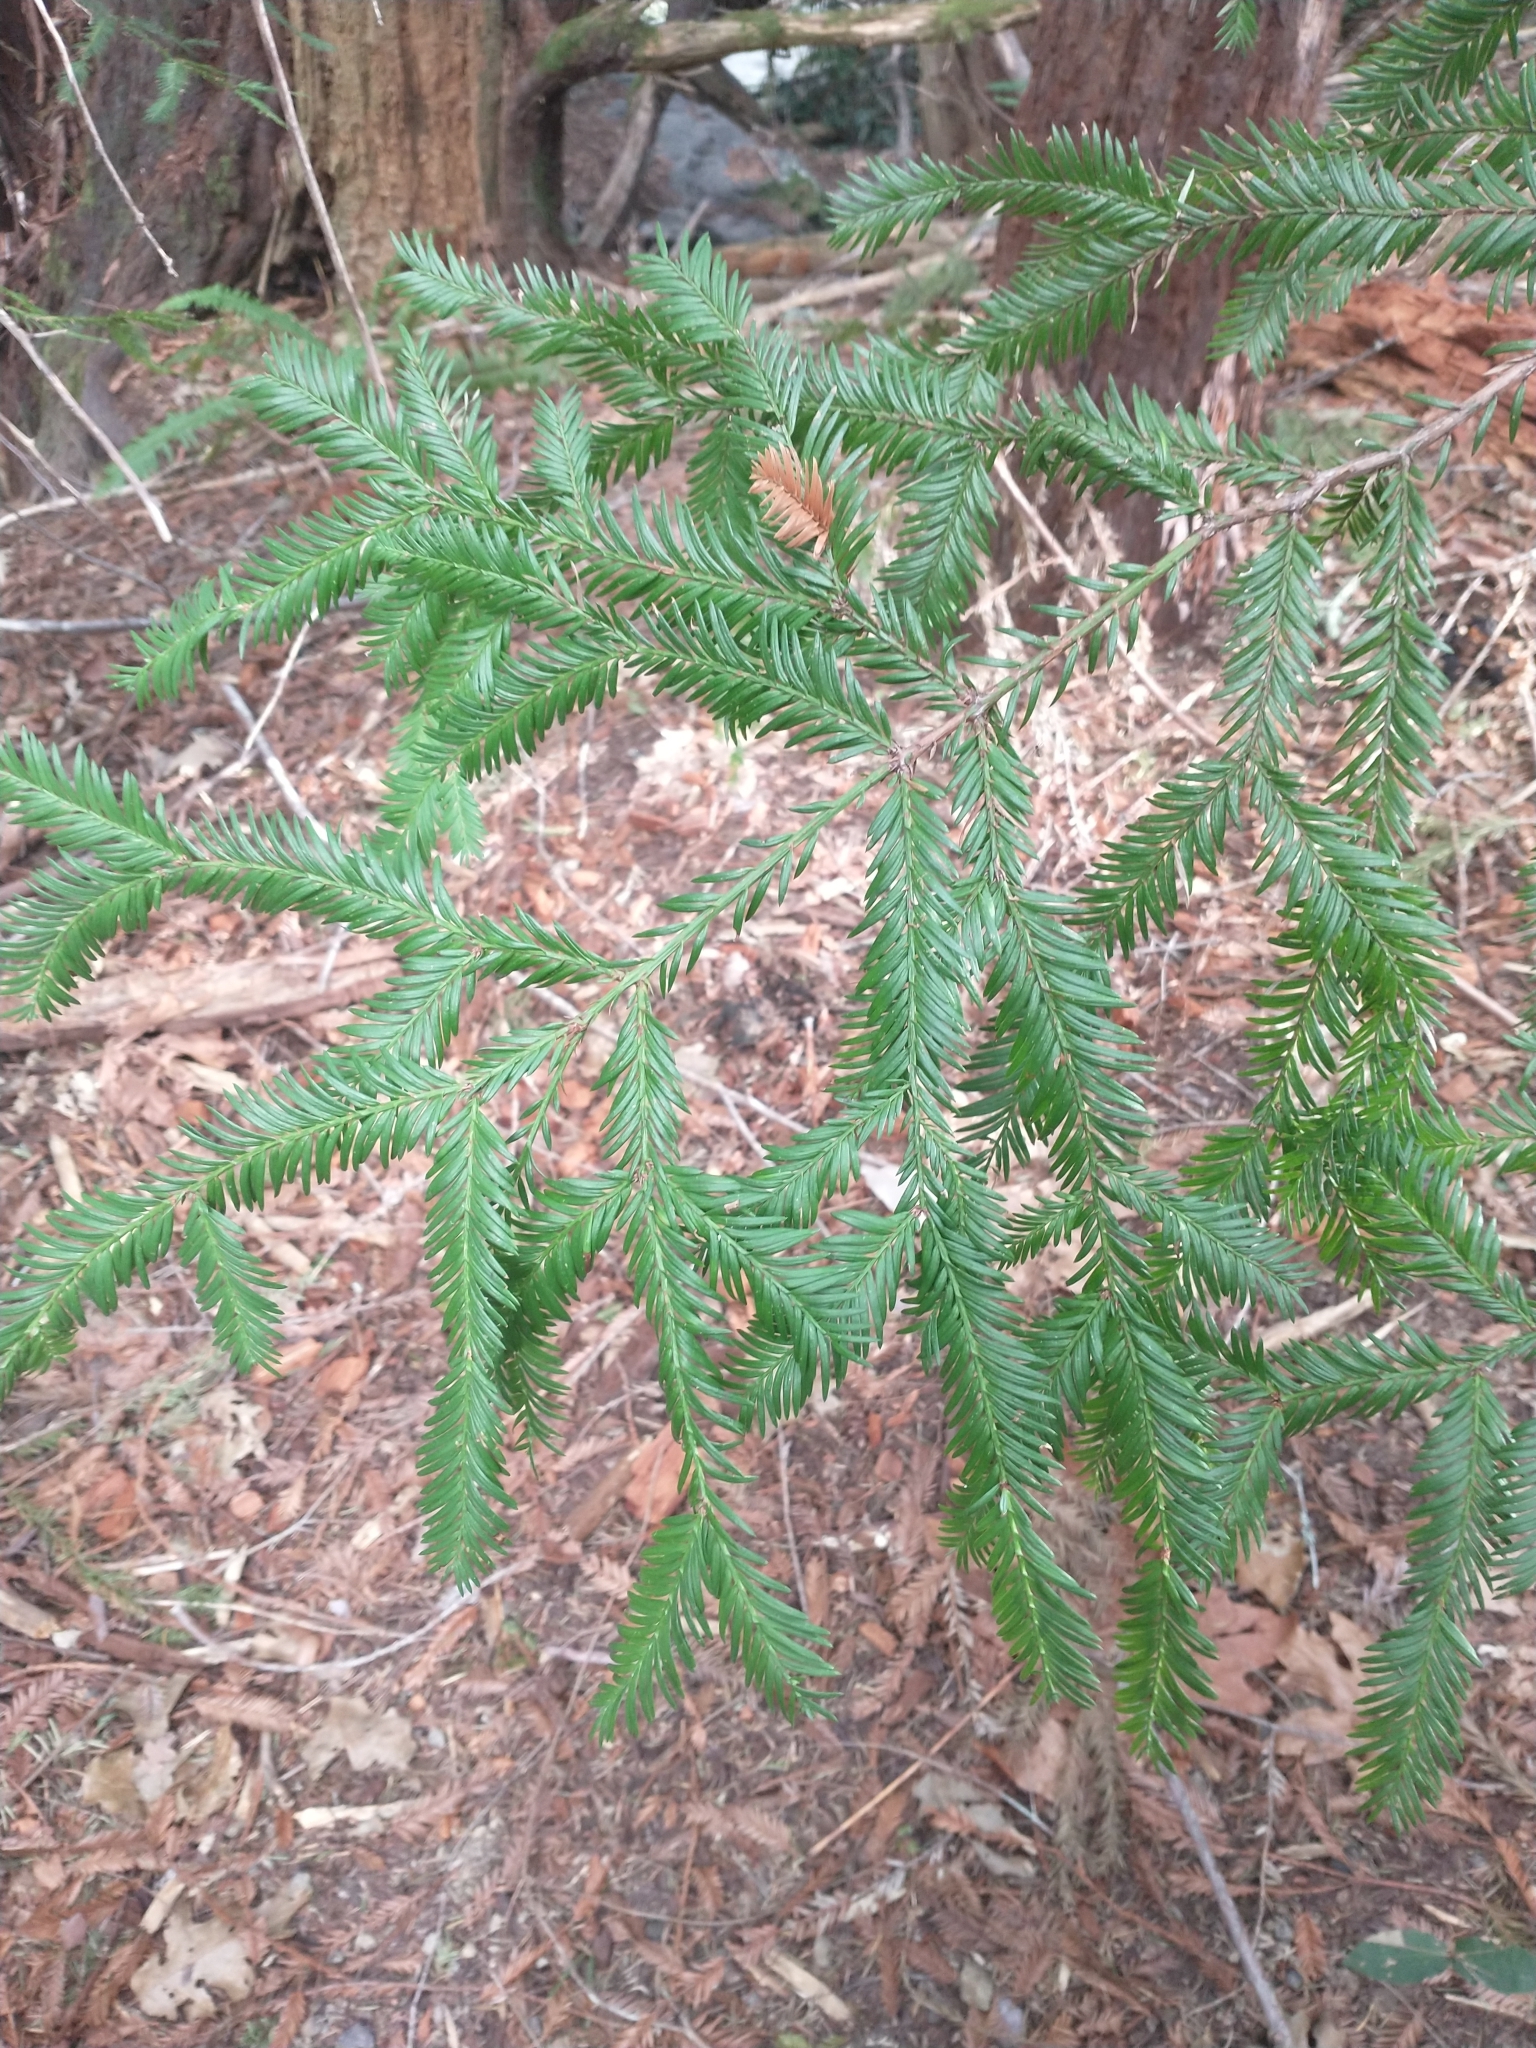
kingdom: Plantae
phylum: Tracheophyta
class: Pinopsida
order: Pinales
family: Cupressaceae
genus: Sequoia
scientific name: Sequoia sempervirens
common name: Coast redwood
